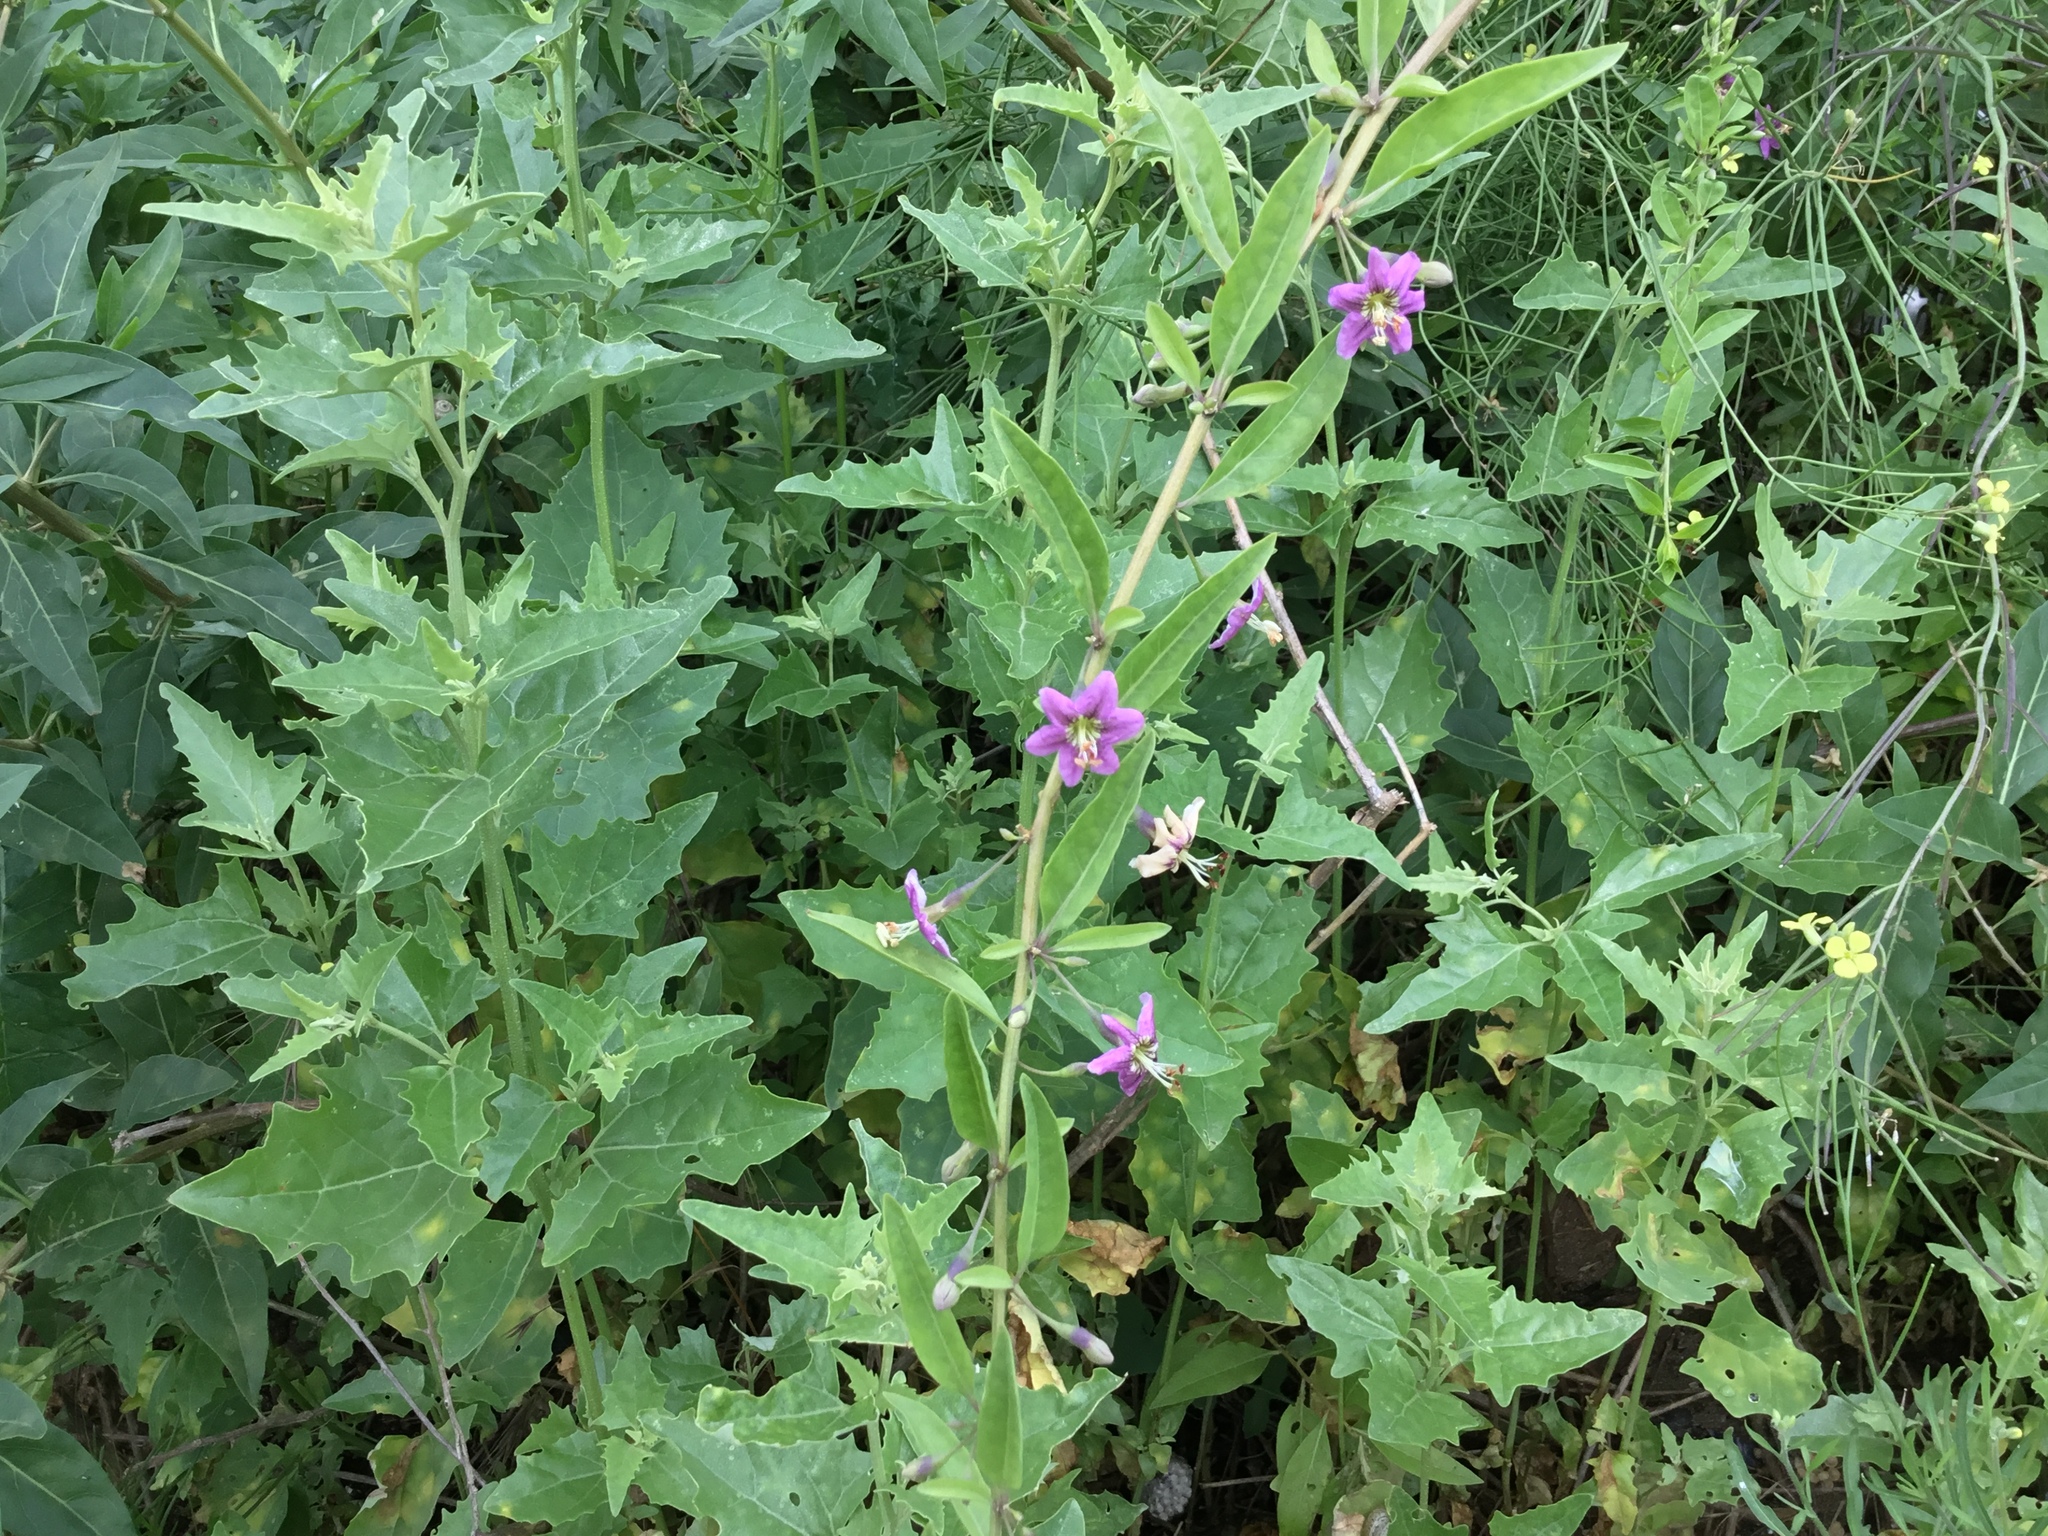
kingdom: Plantae
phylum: Tracheophyta
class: Magnoliopsida
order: Solanales
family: Solanaceae
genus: Lycium
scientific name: Lycium barbarum
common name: Duke of argyll's teaplant
